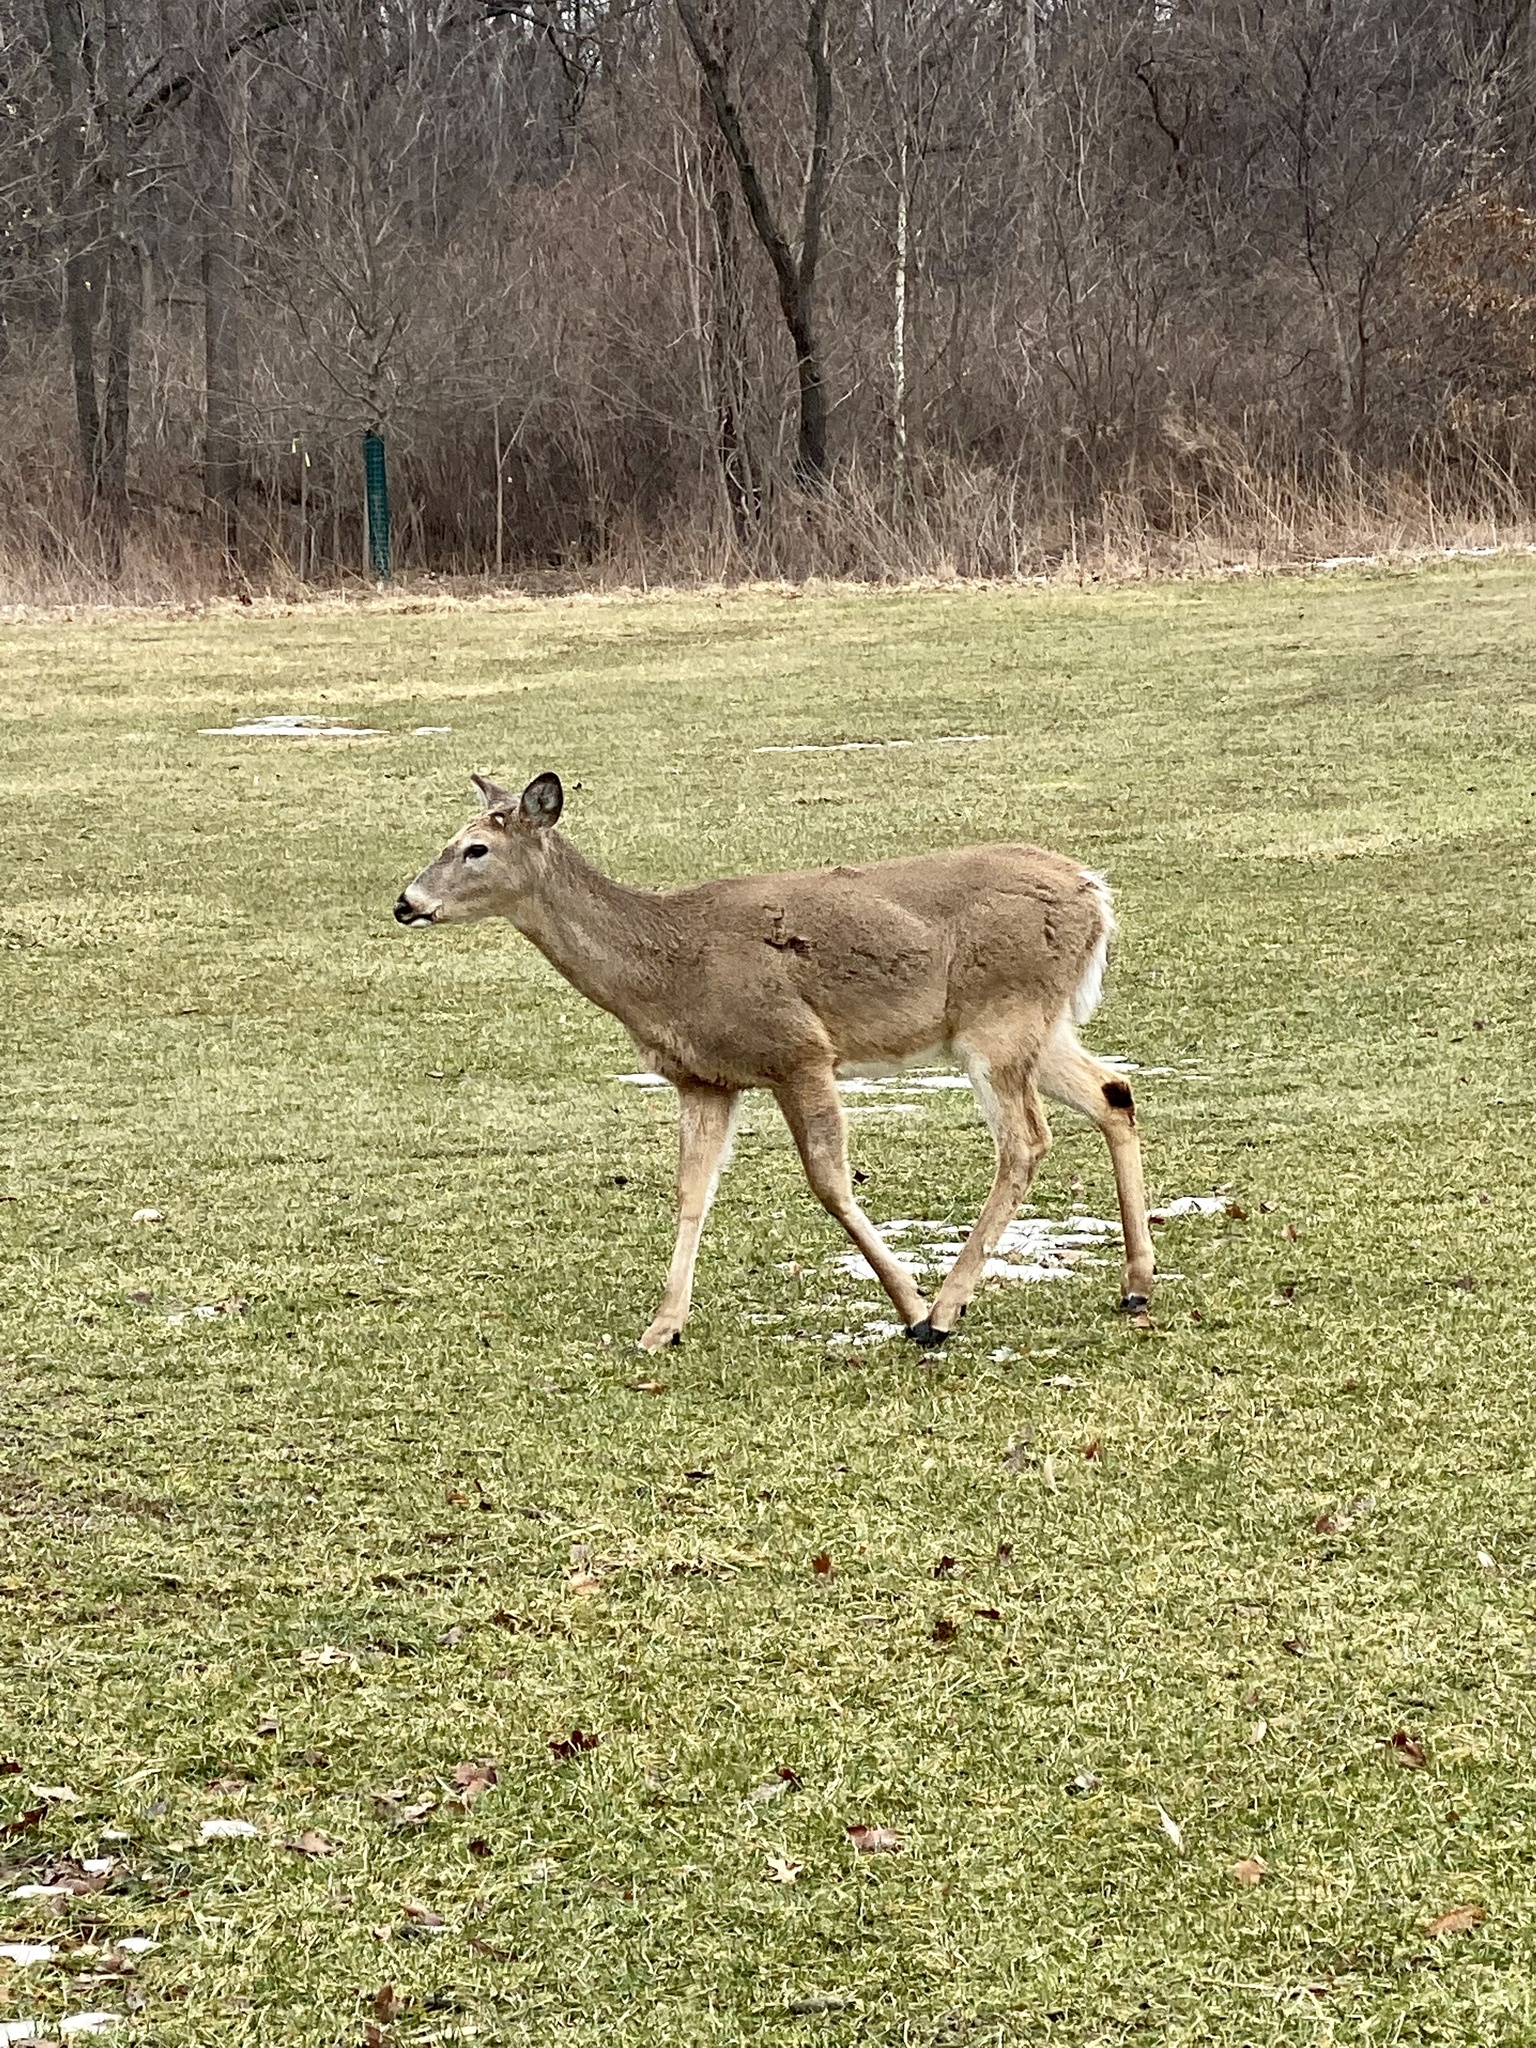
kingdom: Animalia
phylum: Chordata
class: Mammalia
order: Artiodactyla
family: Cervidae
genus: Odocoileus
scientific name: Odocoileus virginianus
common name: White-tailed deer
